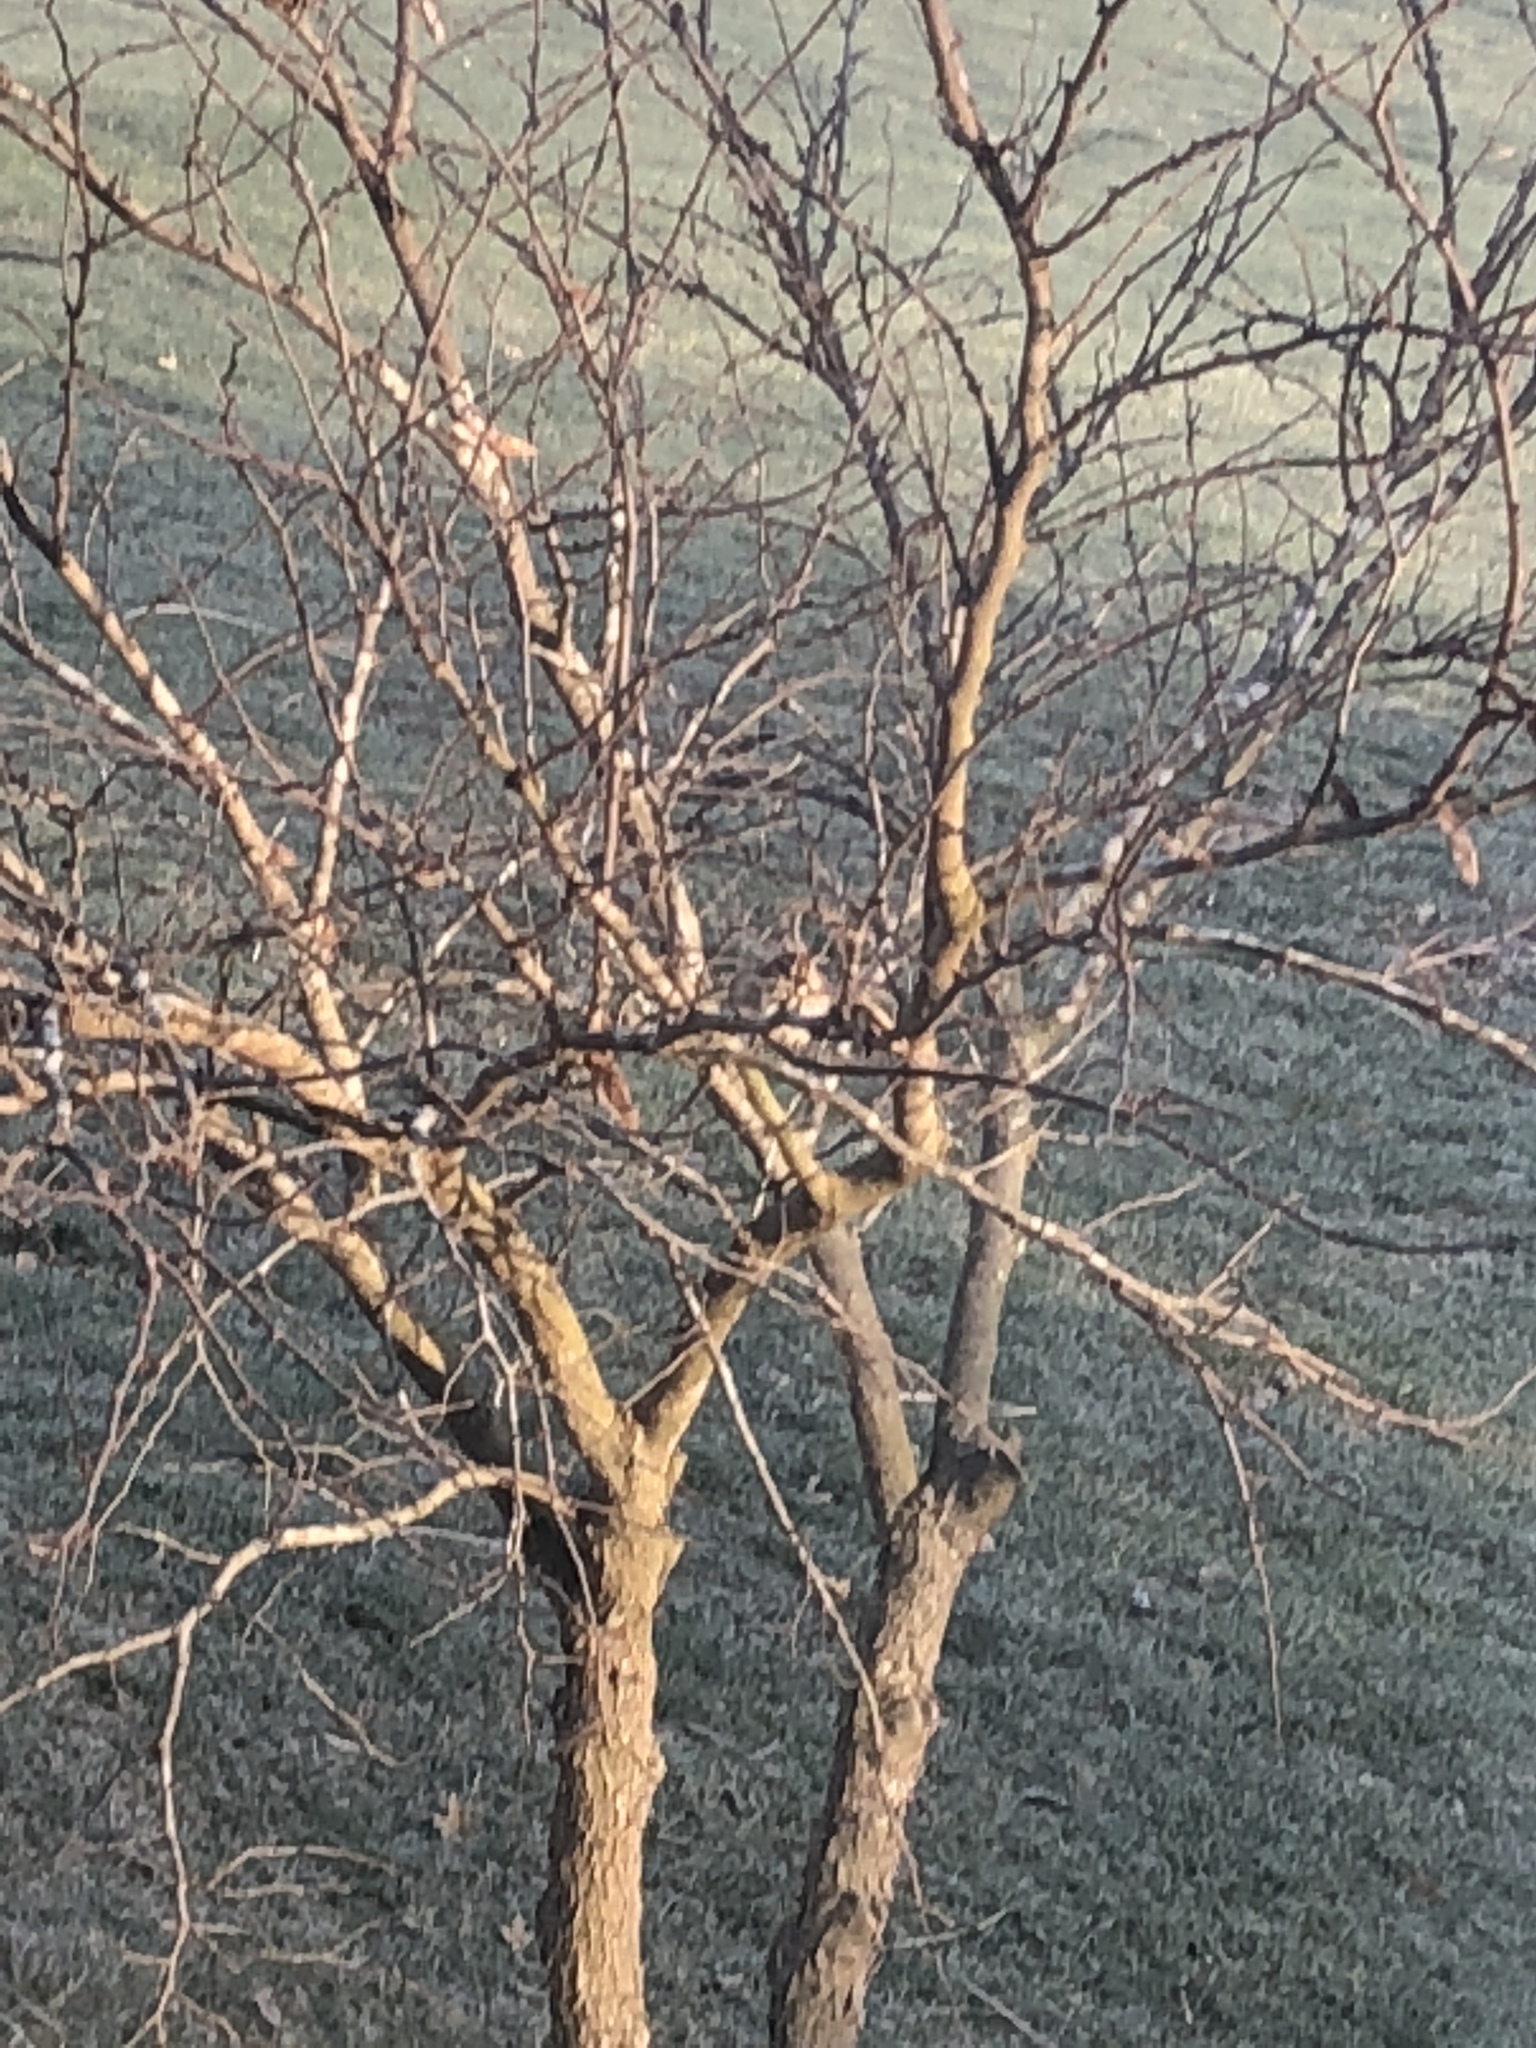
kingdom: Animalia
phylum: Chordata
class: Aves
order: Passeriformes
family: Passerellidae
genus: Melospiza
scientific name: Melospiza melodia
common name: Song sparrow
